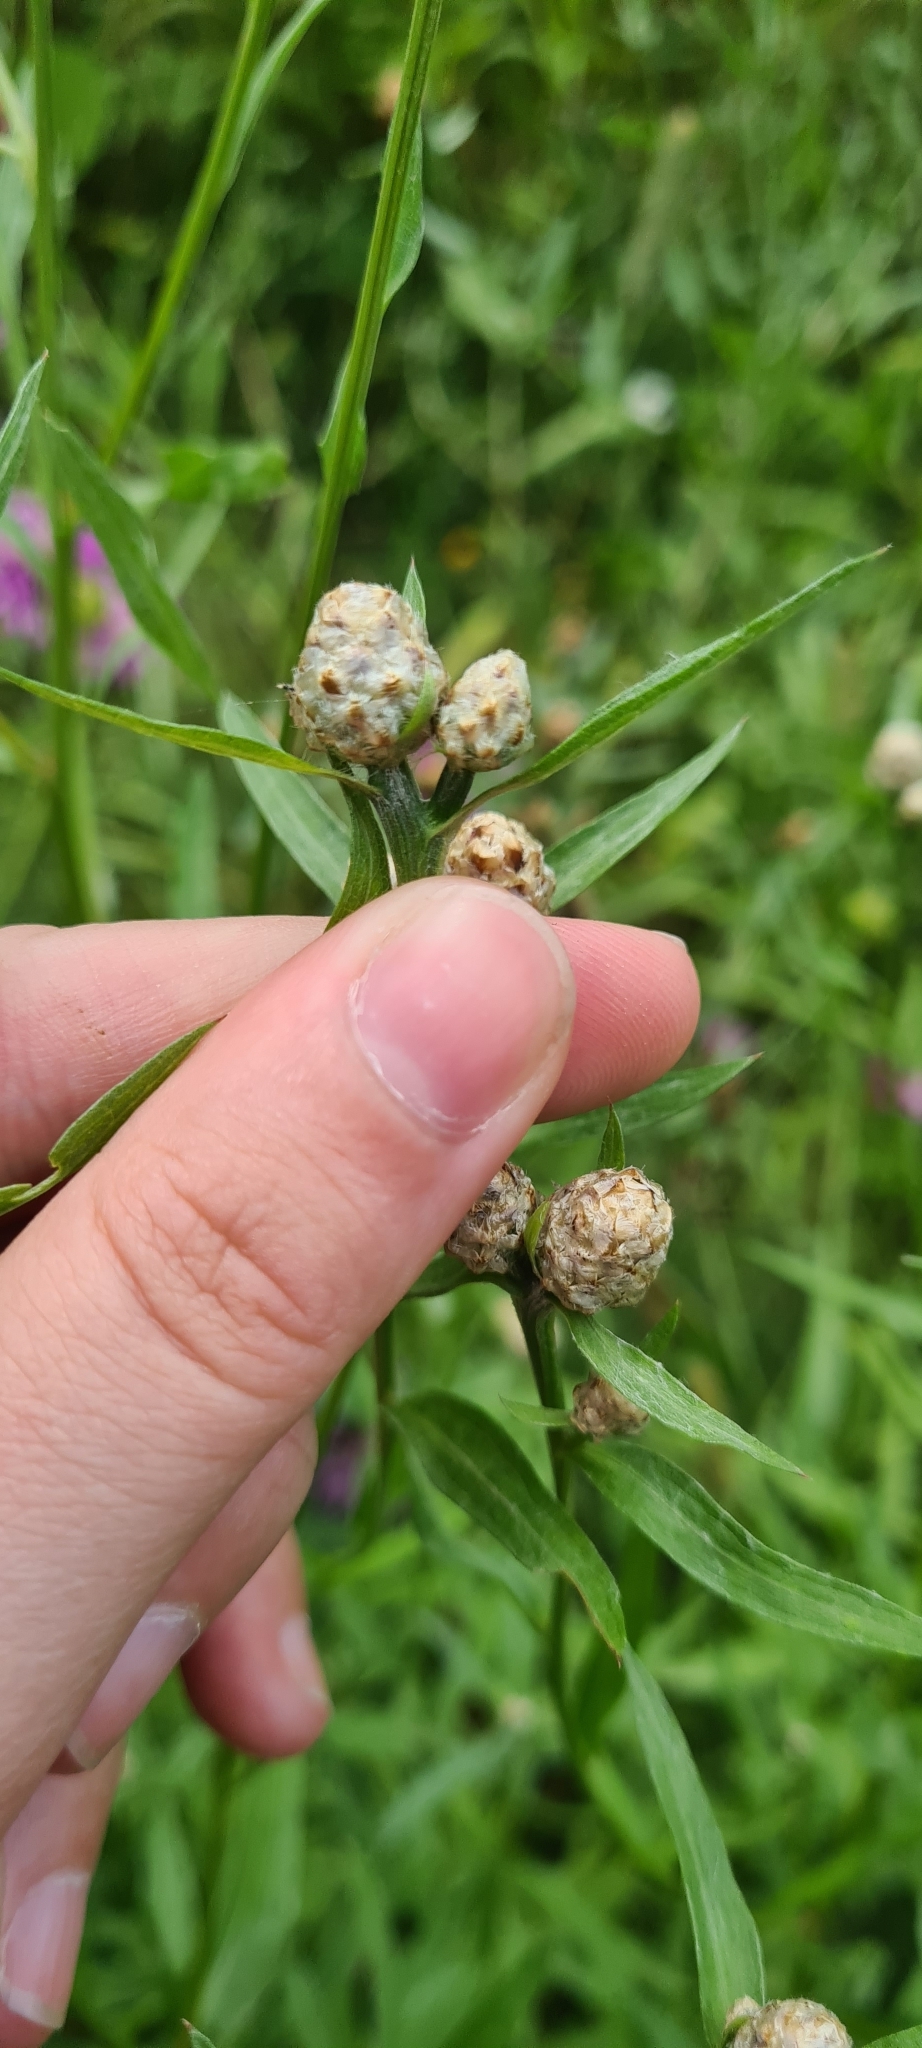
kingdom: Plantae
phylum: Tracheophyta
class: Magnoliopsida
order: Asterales
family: Asteraceae
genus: Centaurea
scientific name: Centaurea jacea
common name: Brown knapweed
